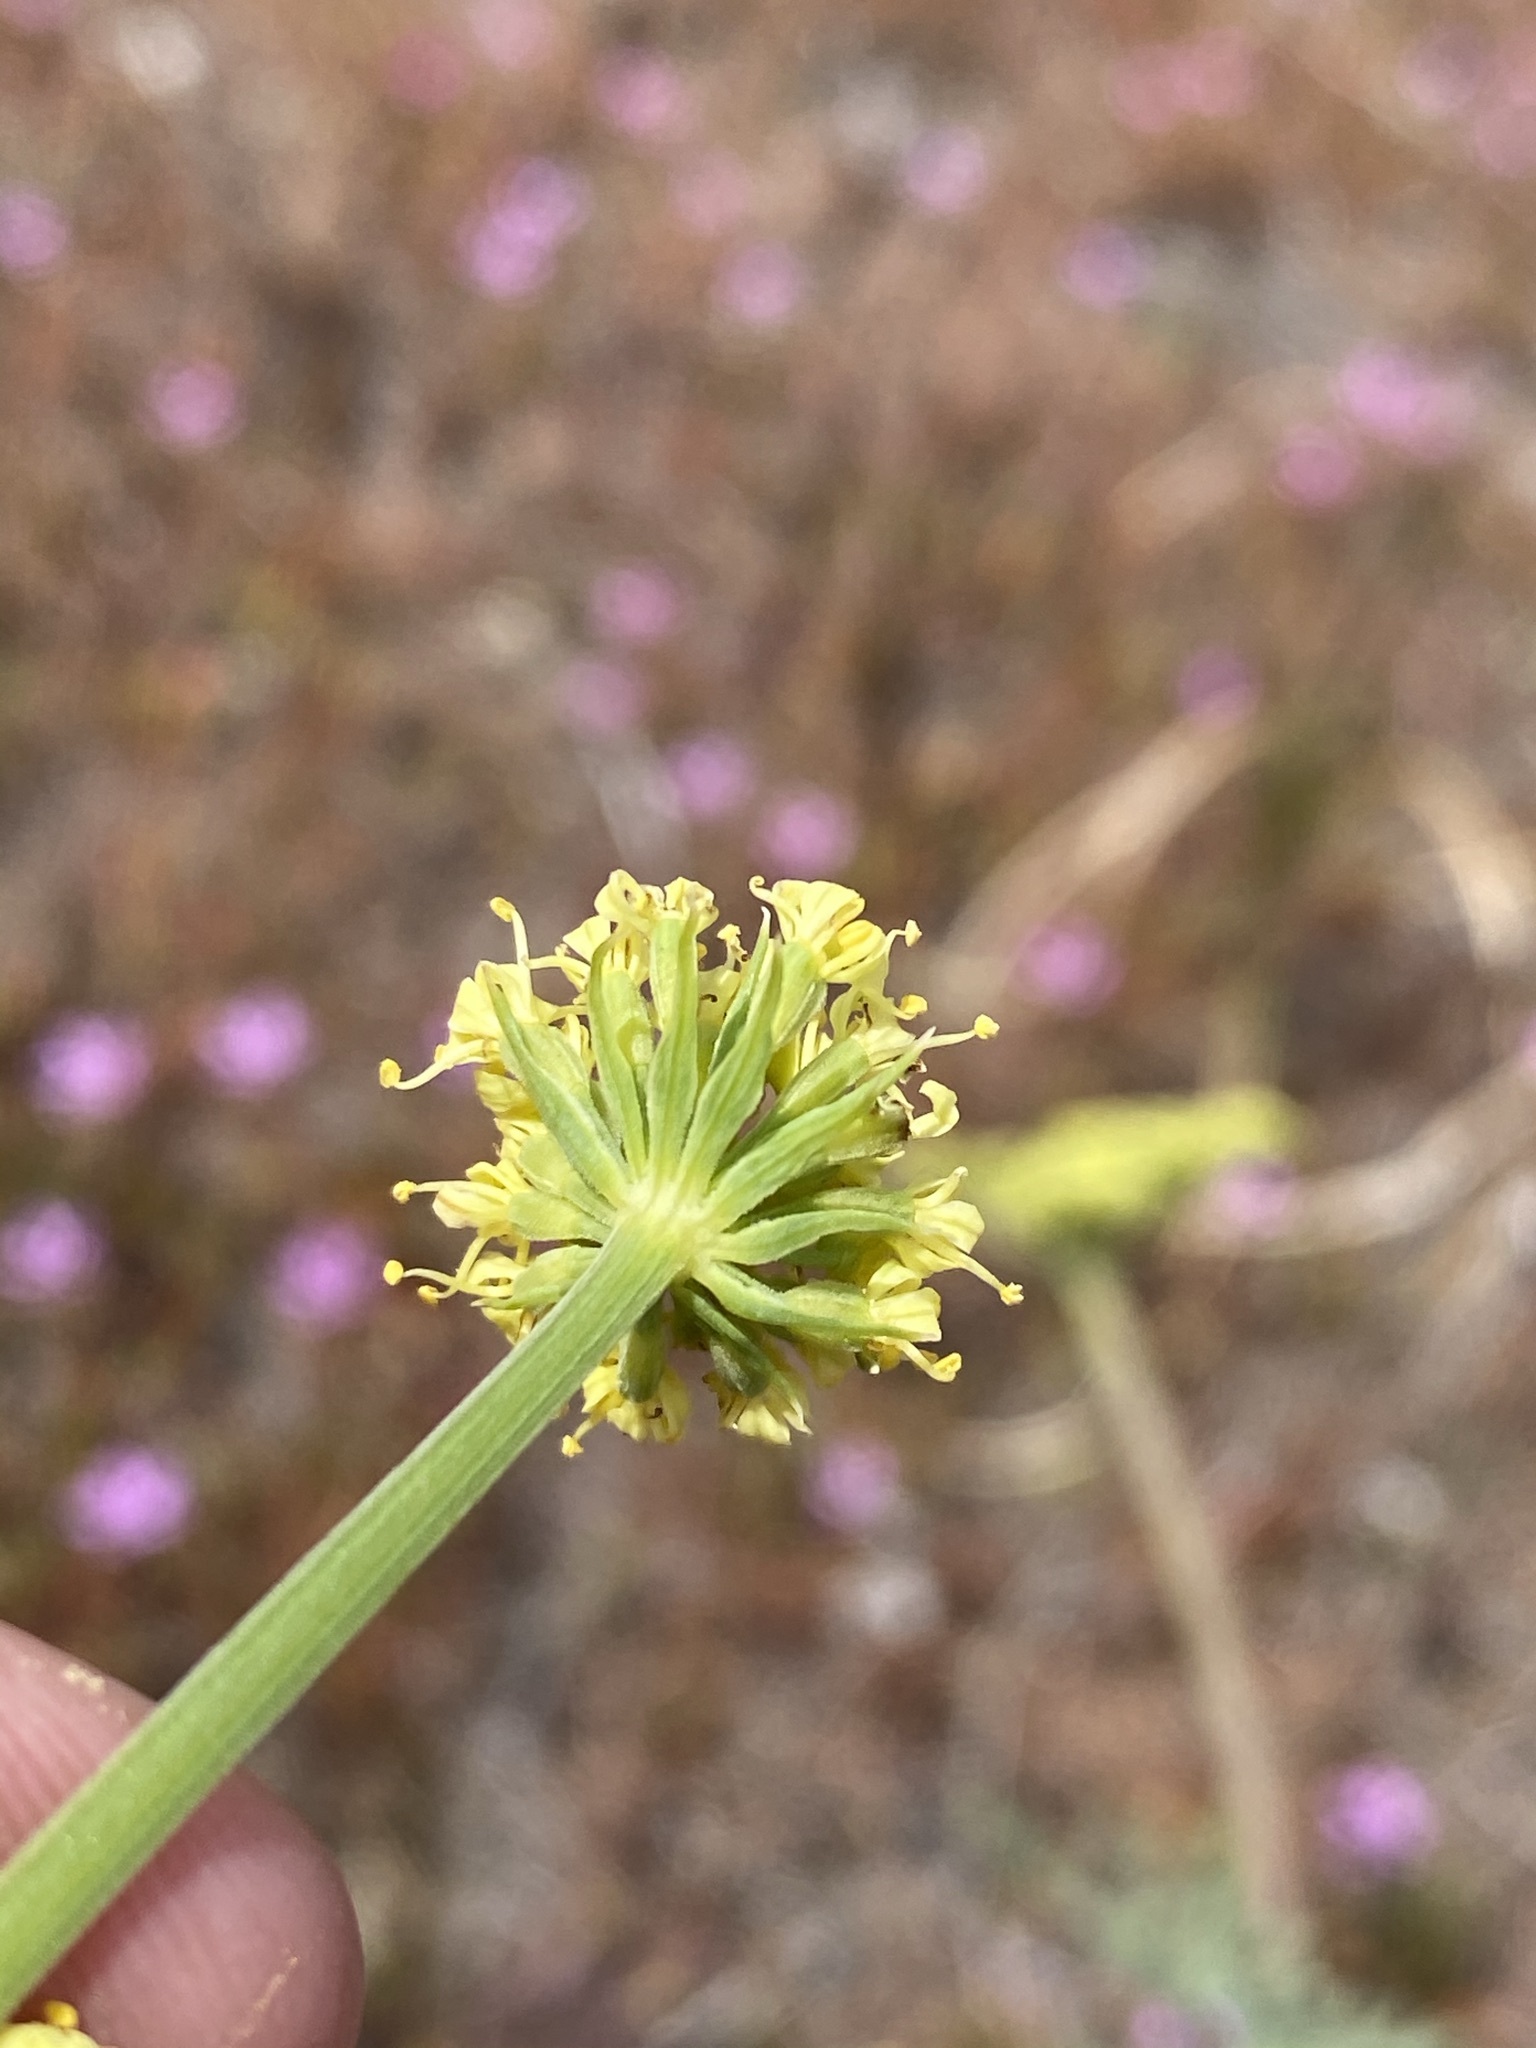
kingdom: Plantae
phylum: Tracheophyta
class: Magnoliopsida
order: Apiales
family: Apiaceae
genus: Lomatium
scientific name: Lomatium triternatum
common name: Ternate lomatium
